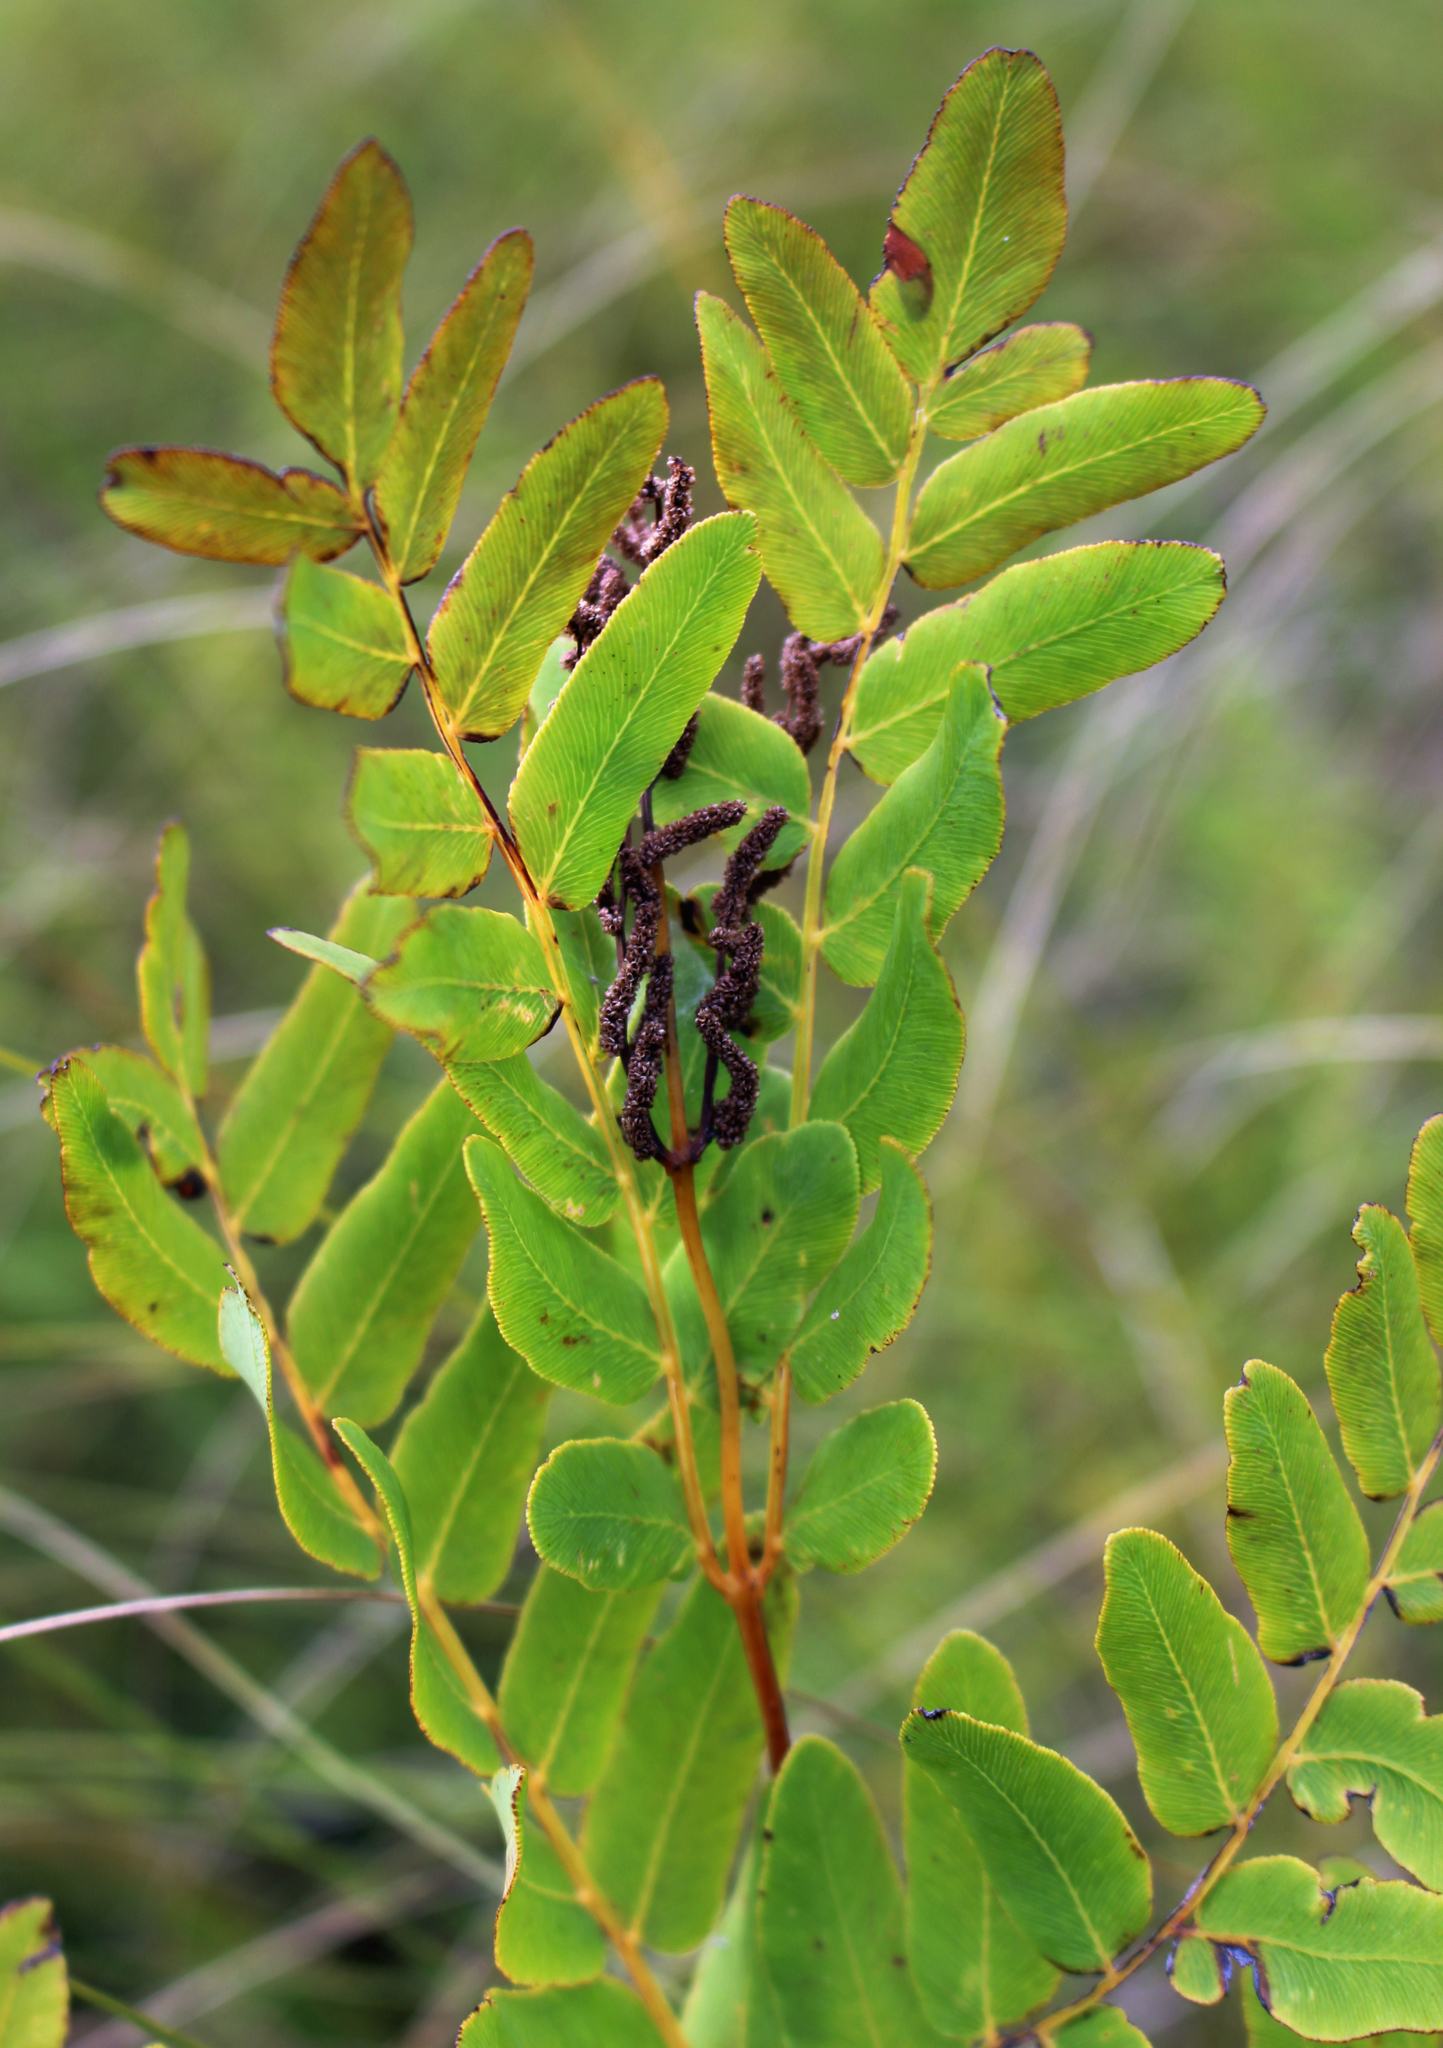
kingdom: Plantae
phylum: Tracheophyta
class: Polypodiopsida
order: Osmundales
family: Osmundaceae
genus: Osmunda
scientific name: Osmunda spectabilis
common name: American royal fern
